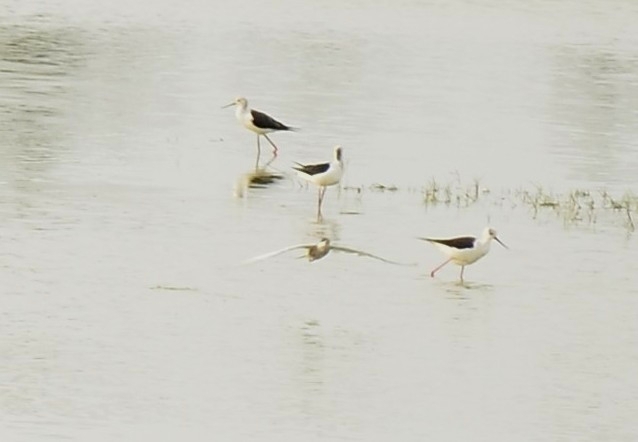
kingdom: Animalia
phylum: Chordata
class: Aves
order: Charadriiformes
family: Recurvirostridae
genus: Himantopus
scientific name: Himantopus himantopus
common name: Black-winged stilt
